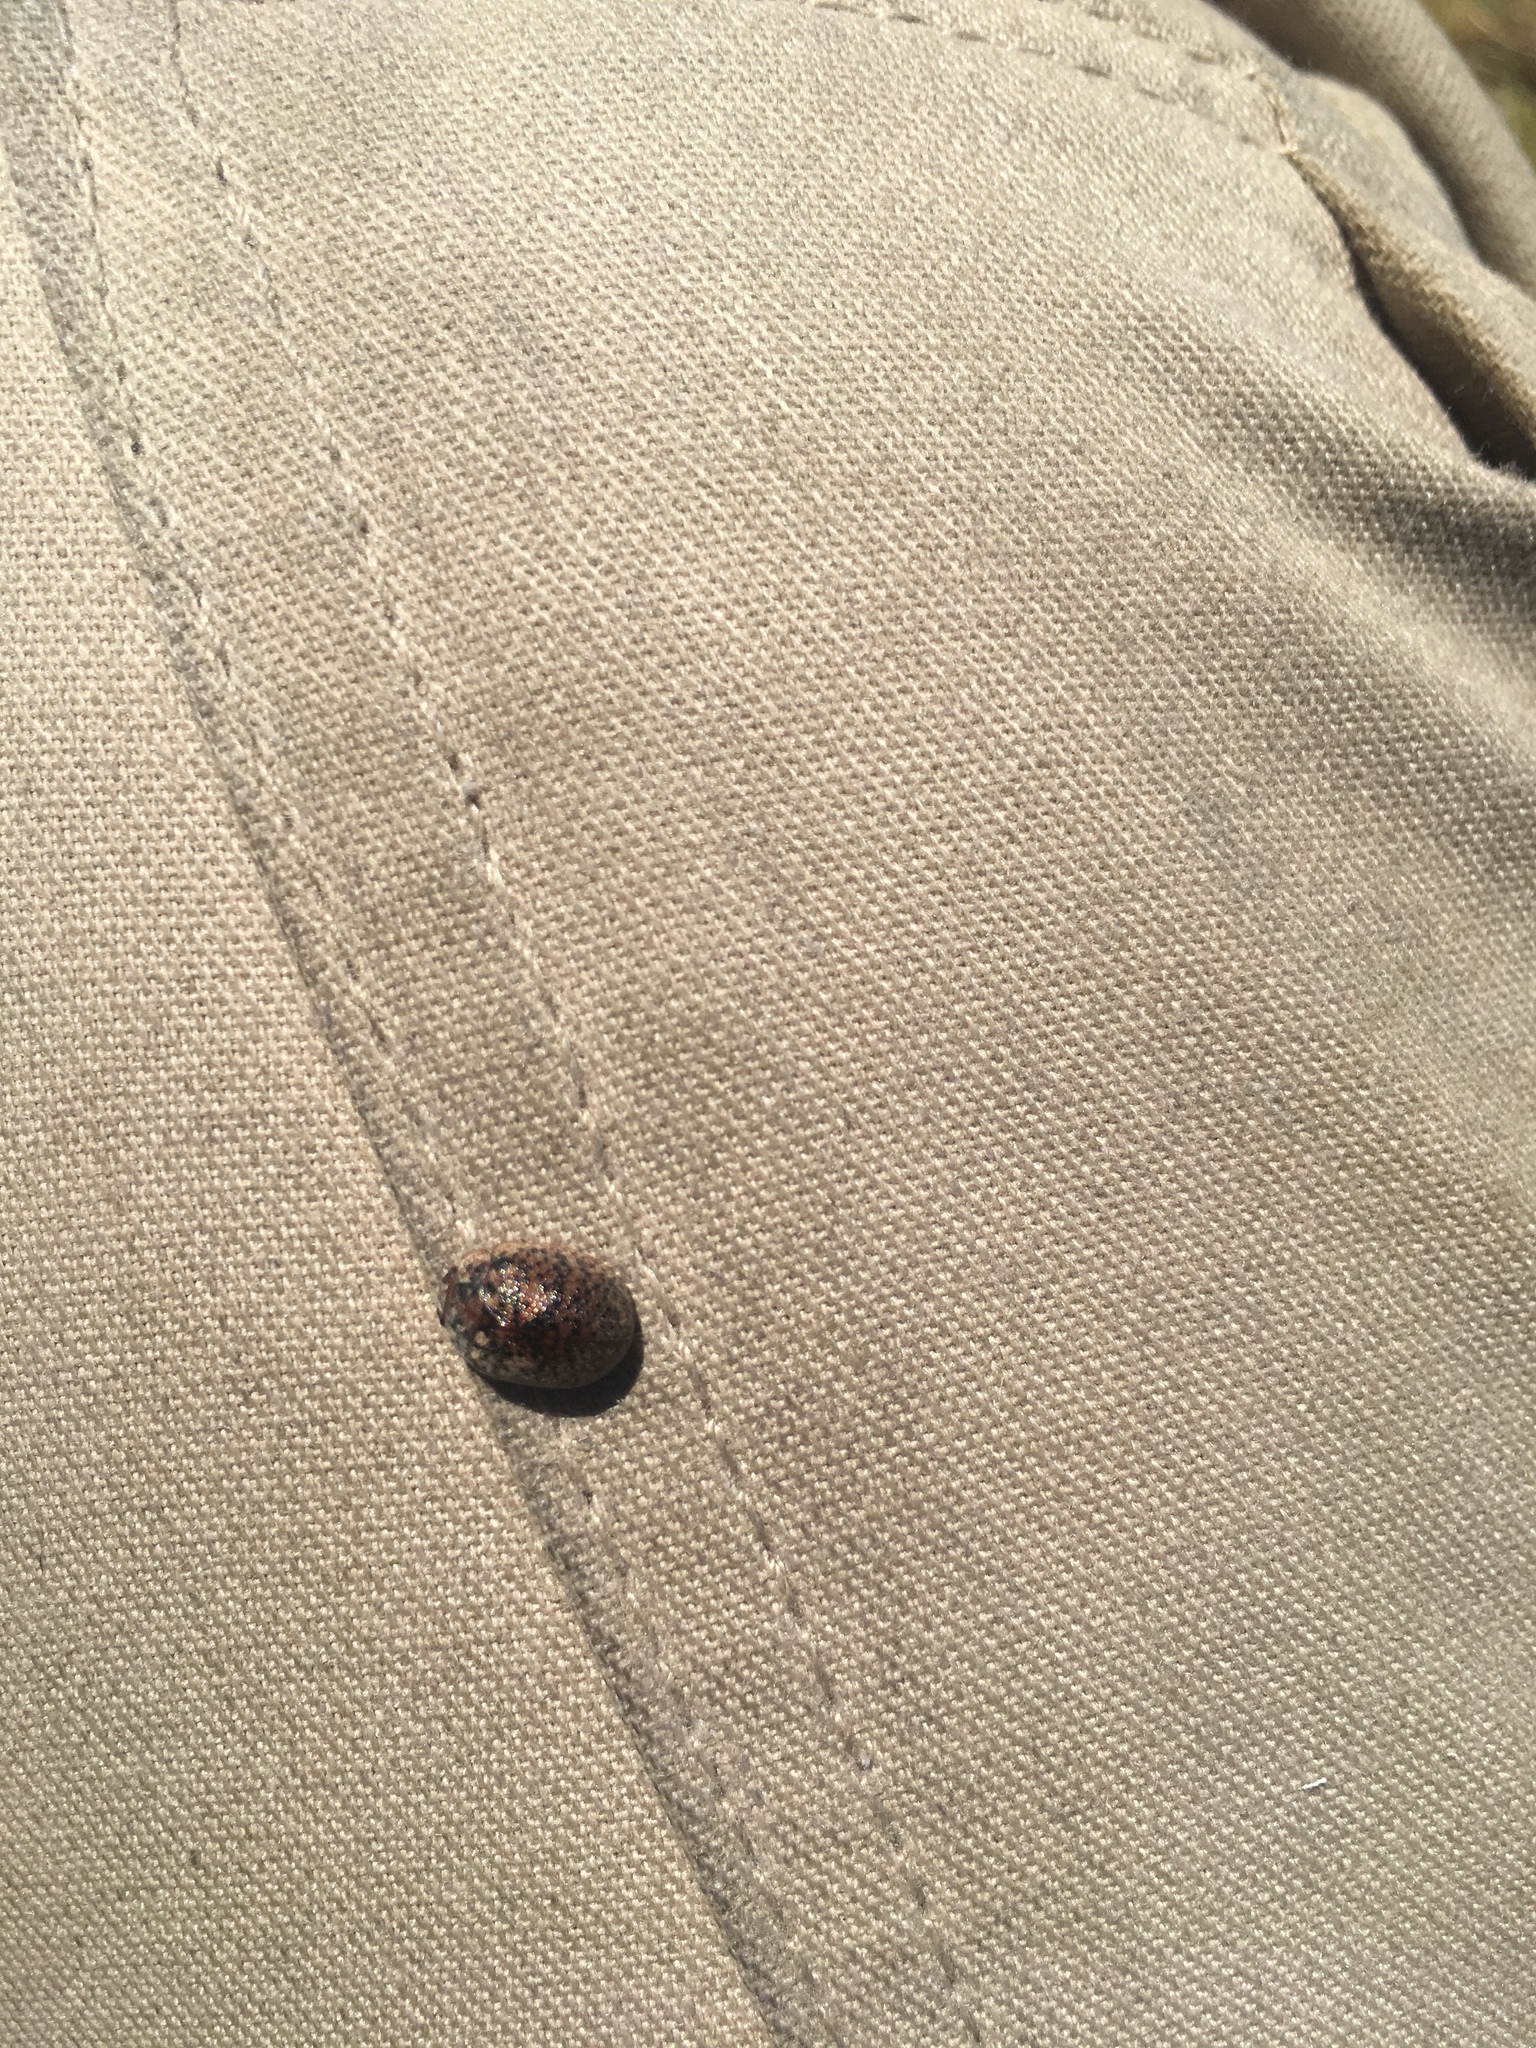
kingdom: Animalia
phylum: Arthropoda
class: Insecta
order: Coleoptera
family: Chrysomelidae
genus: Trachymela
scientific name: Trachymela sloanei
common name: Australian tortoise beetle
